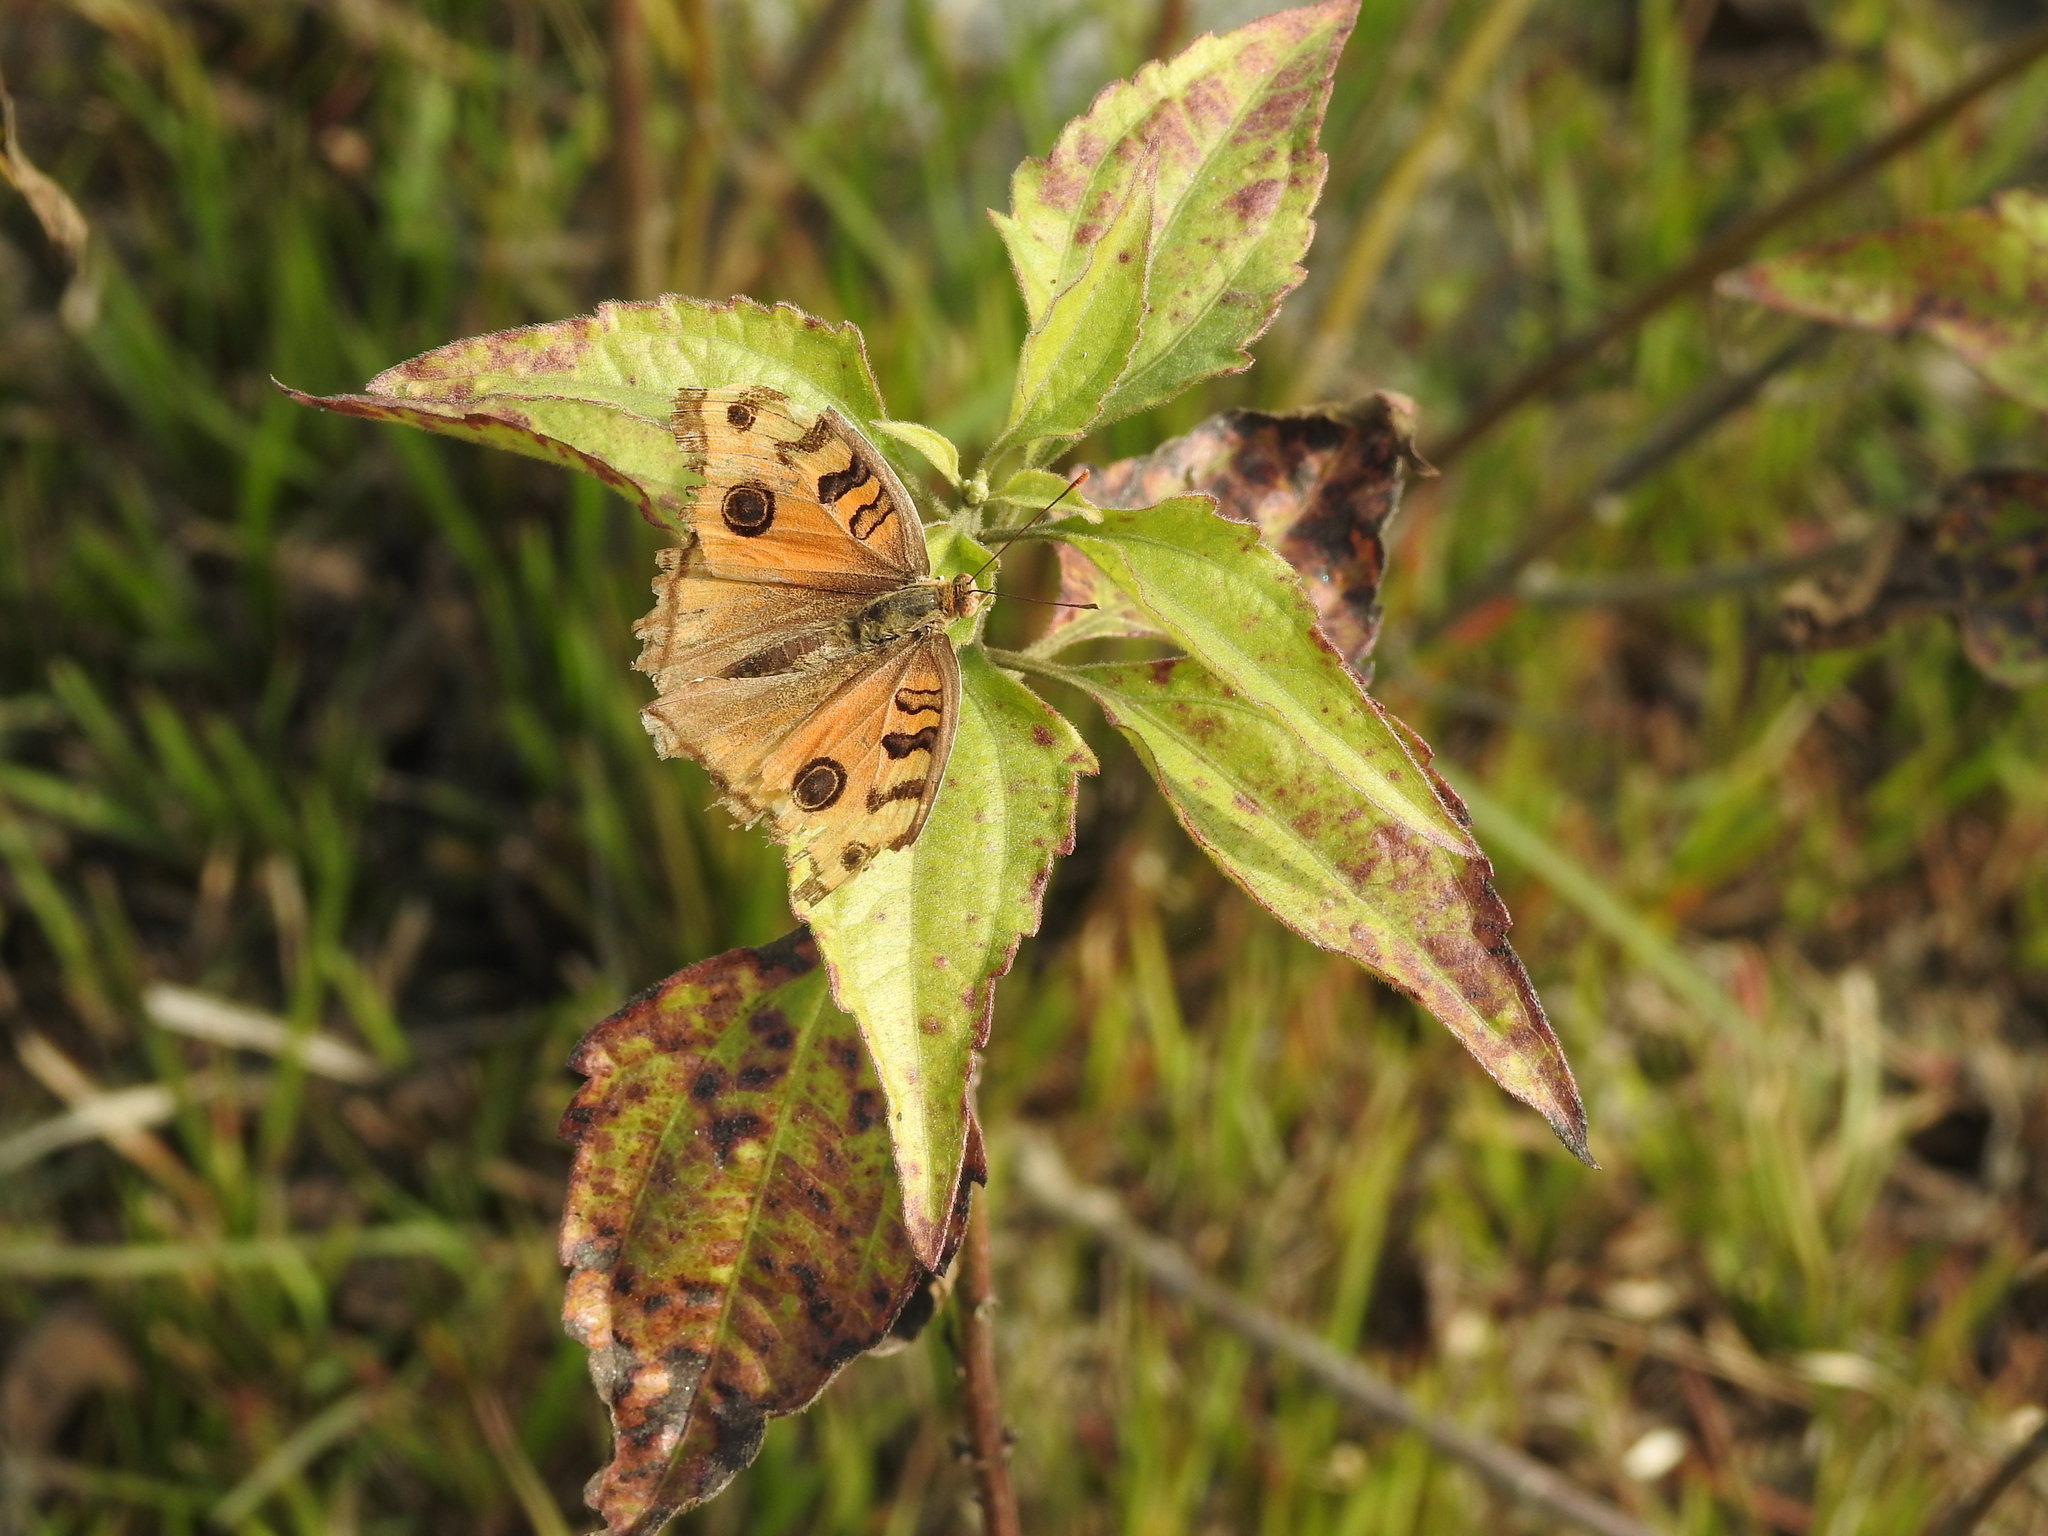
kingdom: Animalia
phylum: Arthropoda
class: Insecta
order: Lepidoptera
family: Nymphalidae
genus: Junonia
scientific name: Junonia almana
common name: Peacock pansy
